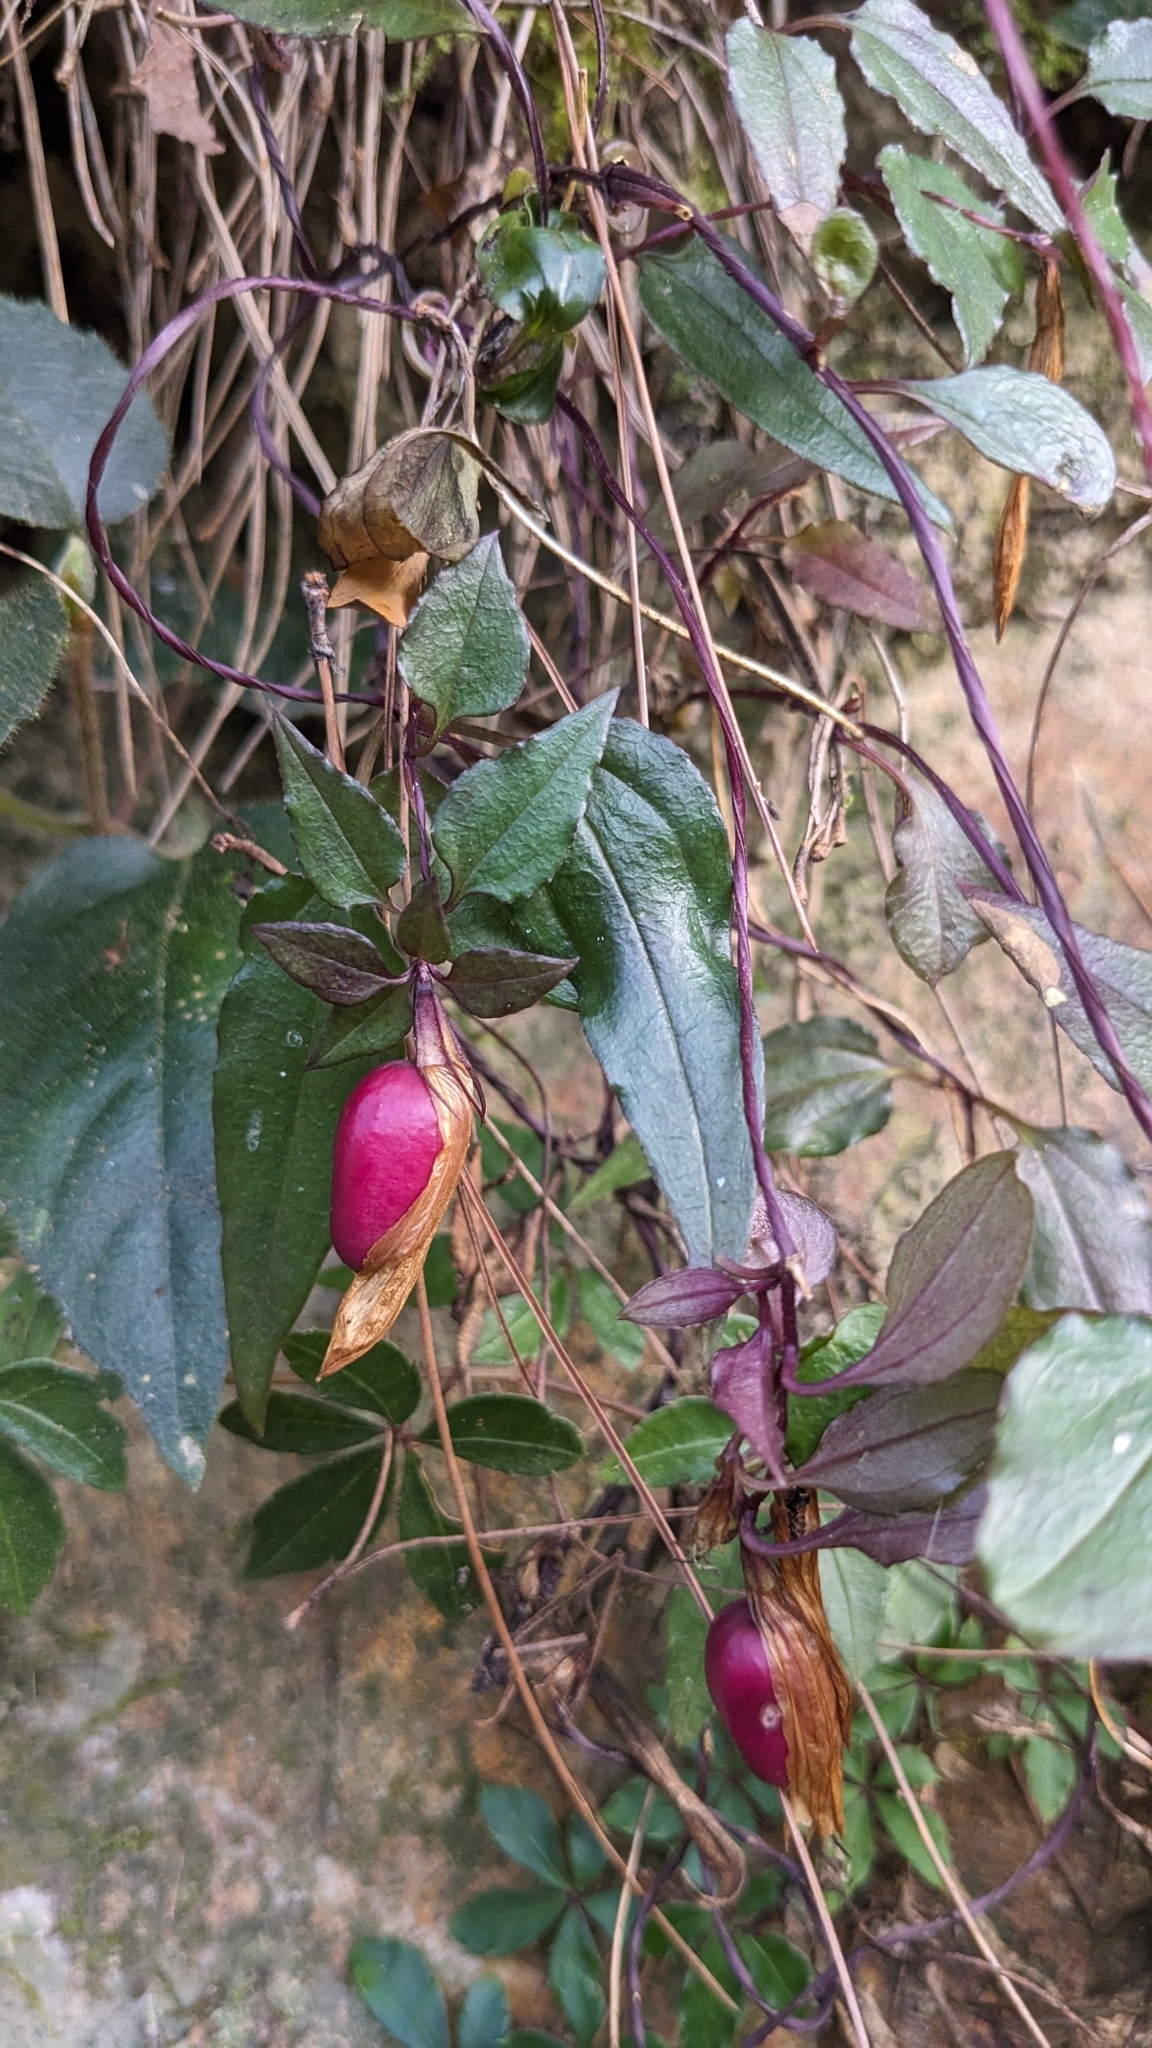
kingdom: Plantae
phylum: Tracheophyta
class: Magnoliopsida
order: Gentianales
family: Gentianaceae
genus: Tripterospermum
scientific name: Tripterospermum luzonense
